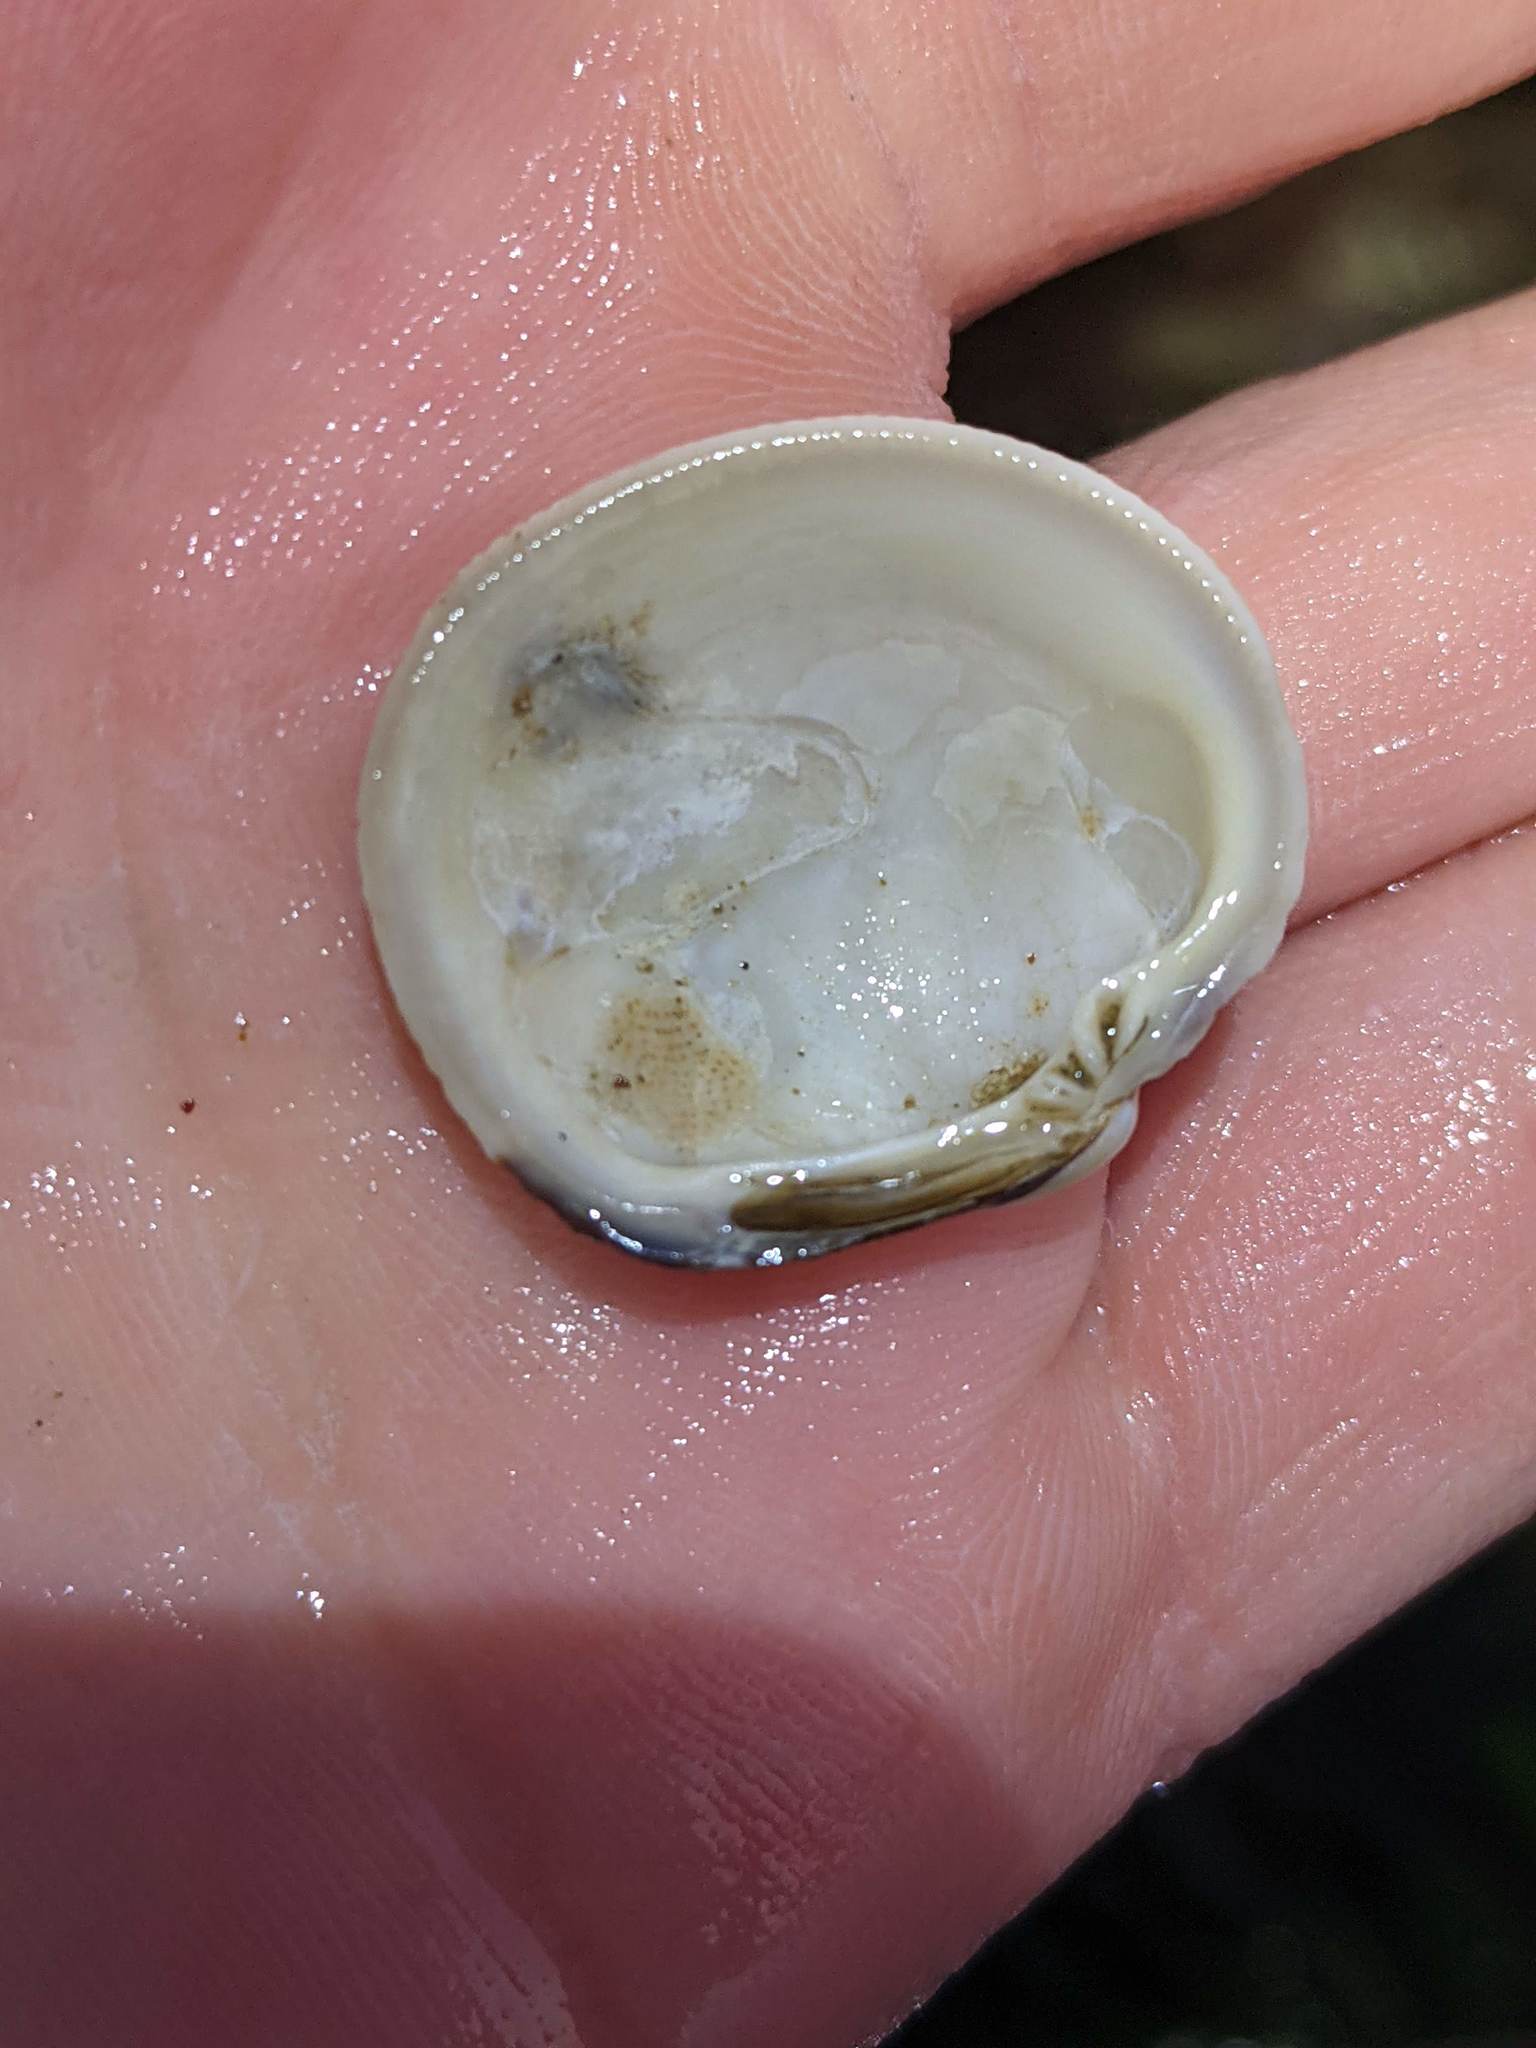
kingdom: Animalia
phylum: Mollusca
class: Bivalvia
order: Venerida
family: Veneridae
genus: Leukoma
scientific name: Leukoma staminea
